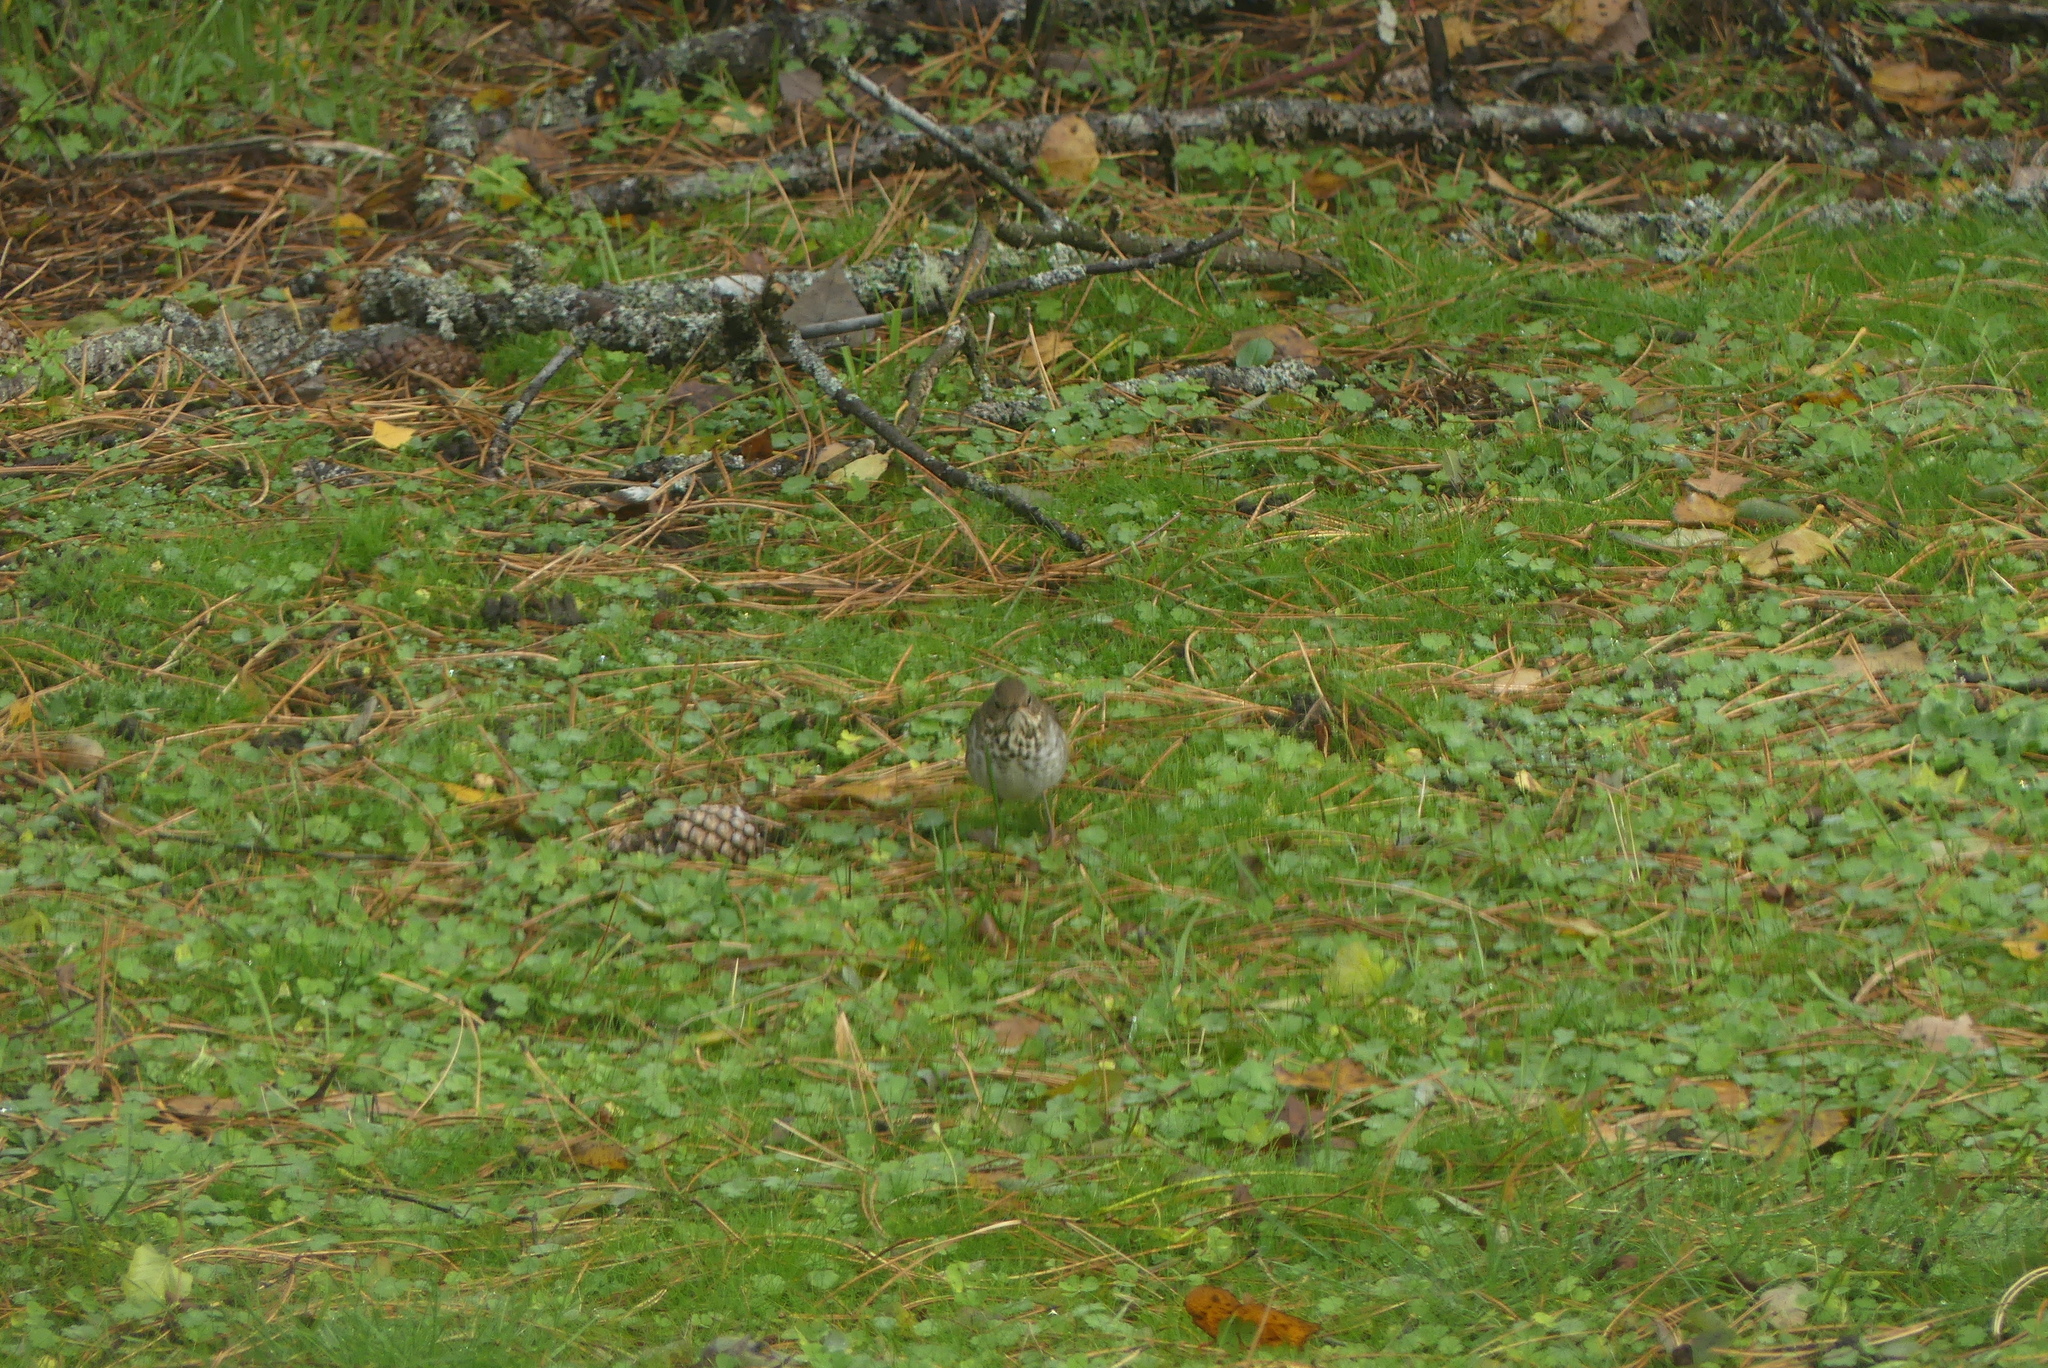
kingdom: Animalia
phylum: Chordata
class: Aves
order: Passeriformes
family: Turdidae
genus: Catharus
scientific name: Catharus guttatus
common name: Hermit thrush
